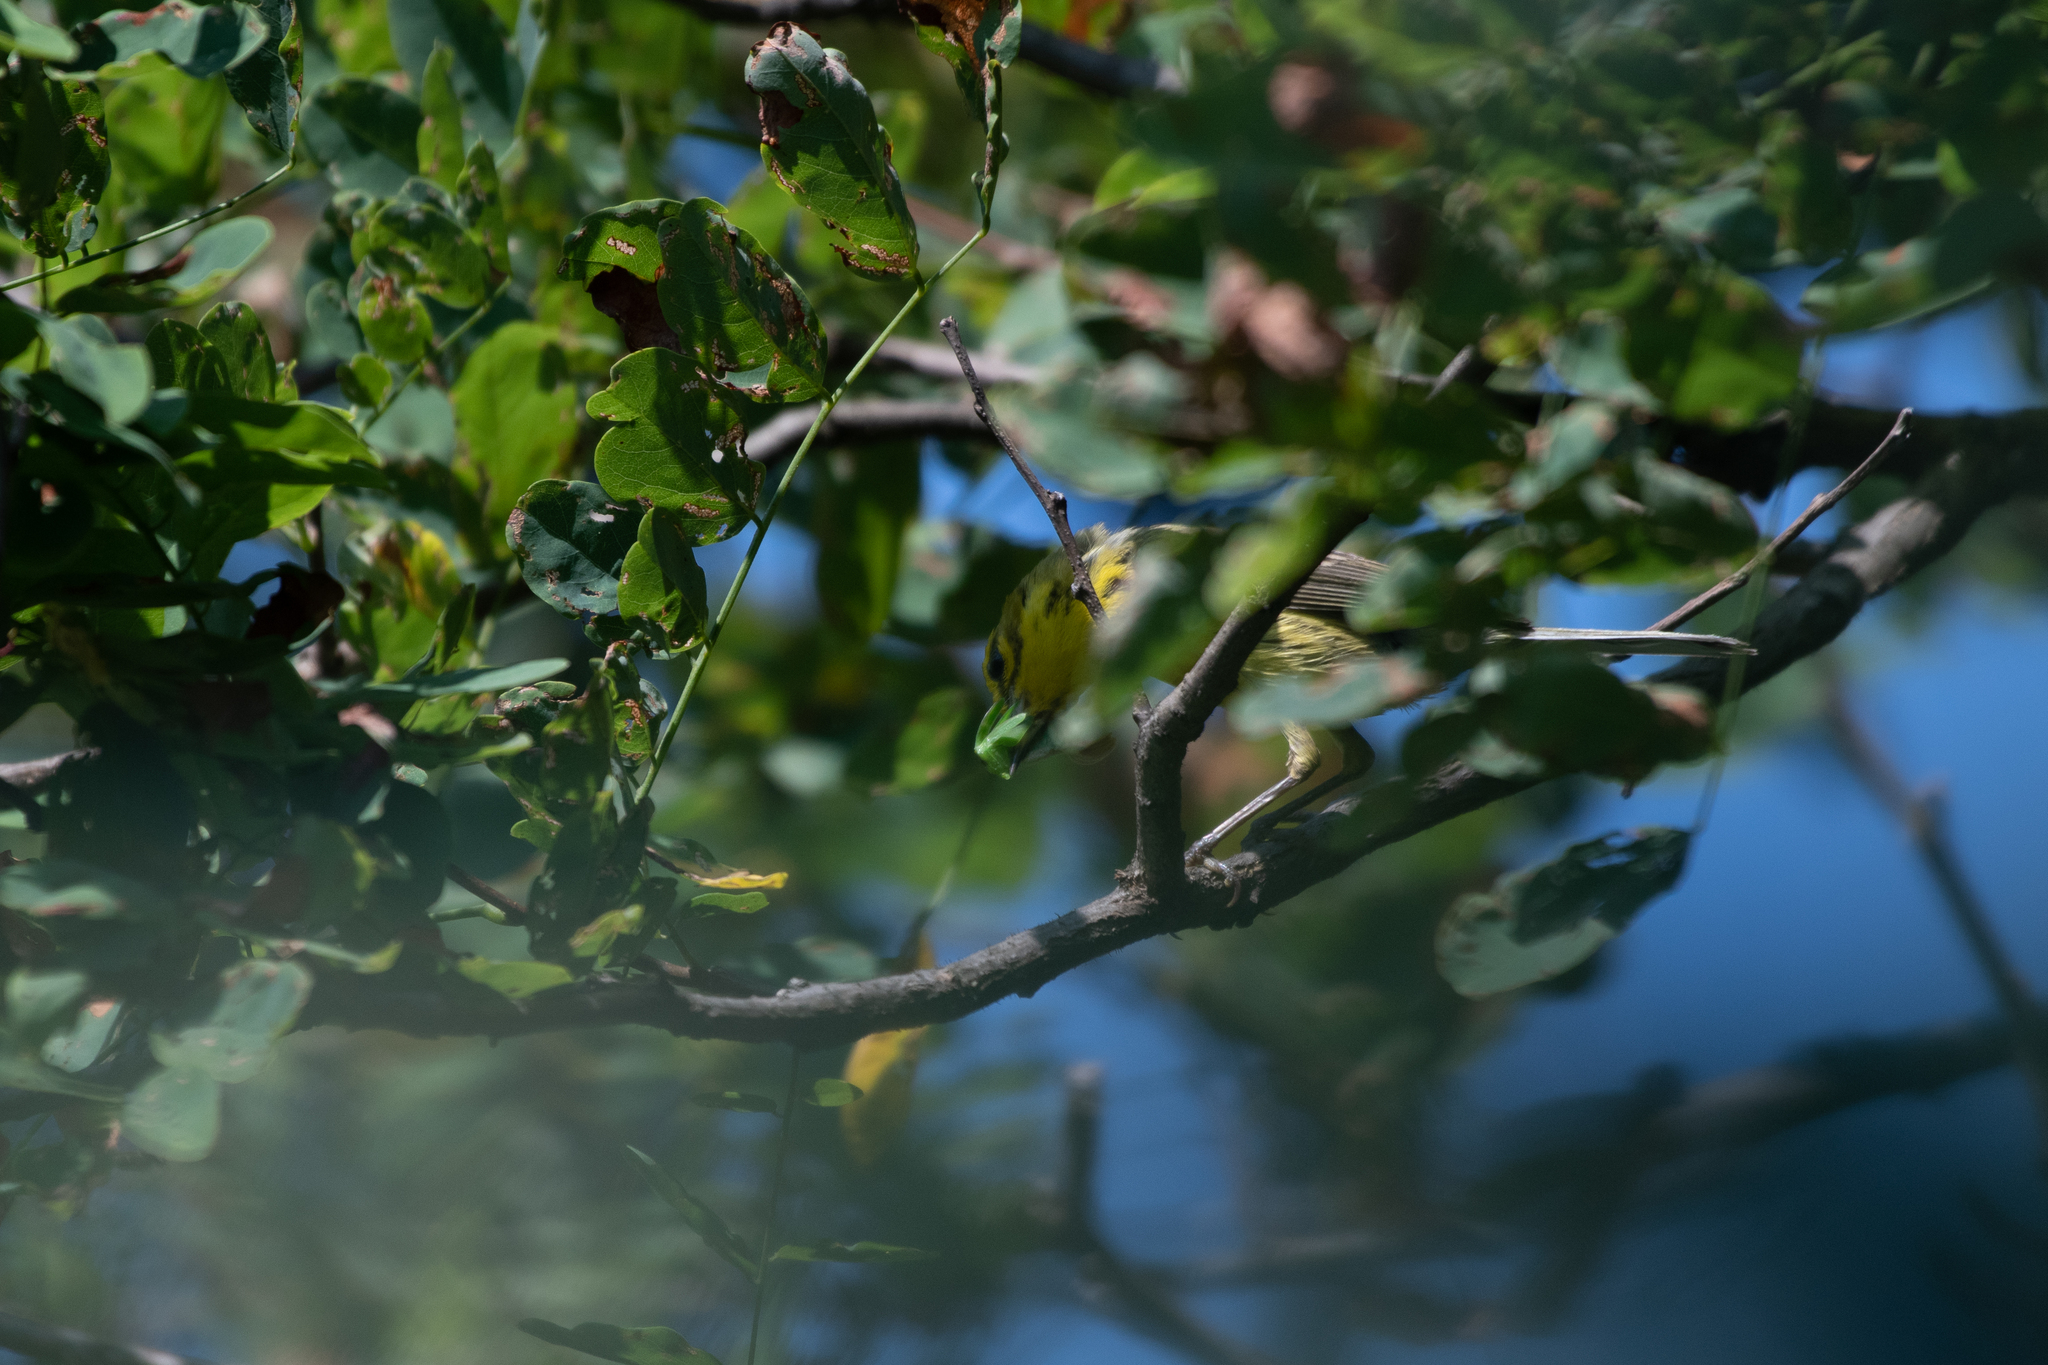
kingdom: Animalia
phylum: Chordata
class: Aves
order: Passeriformes
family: Parulidae
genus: Setophaga
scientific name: Setophaga discolor
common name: Prairie warbler
